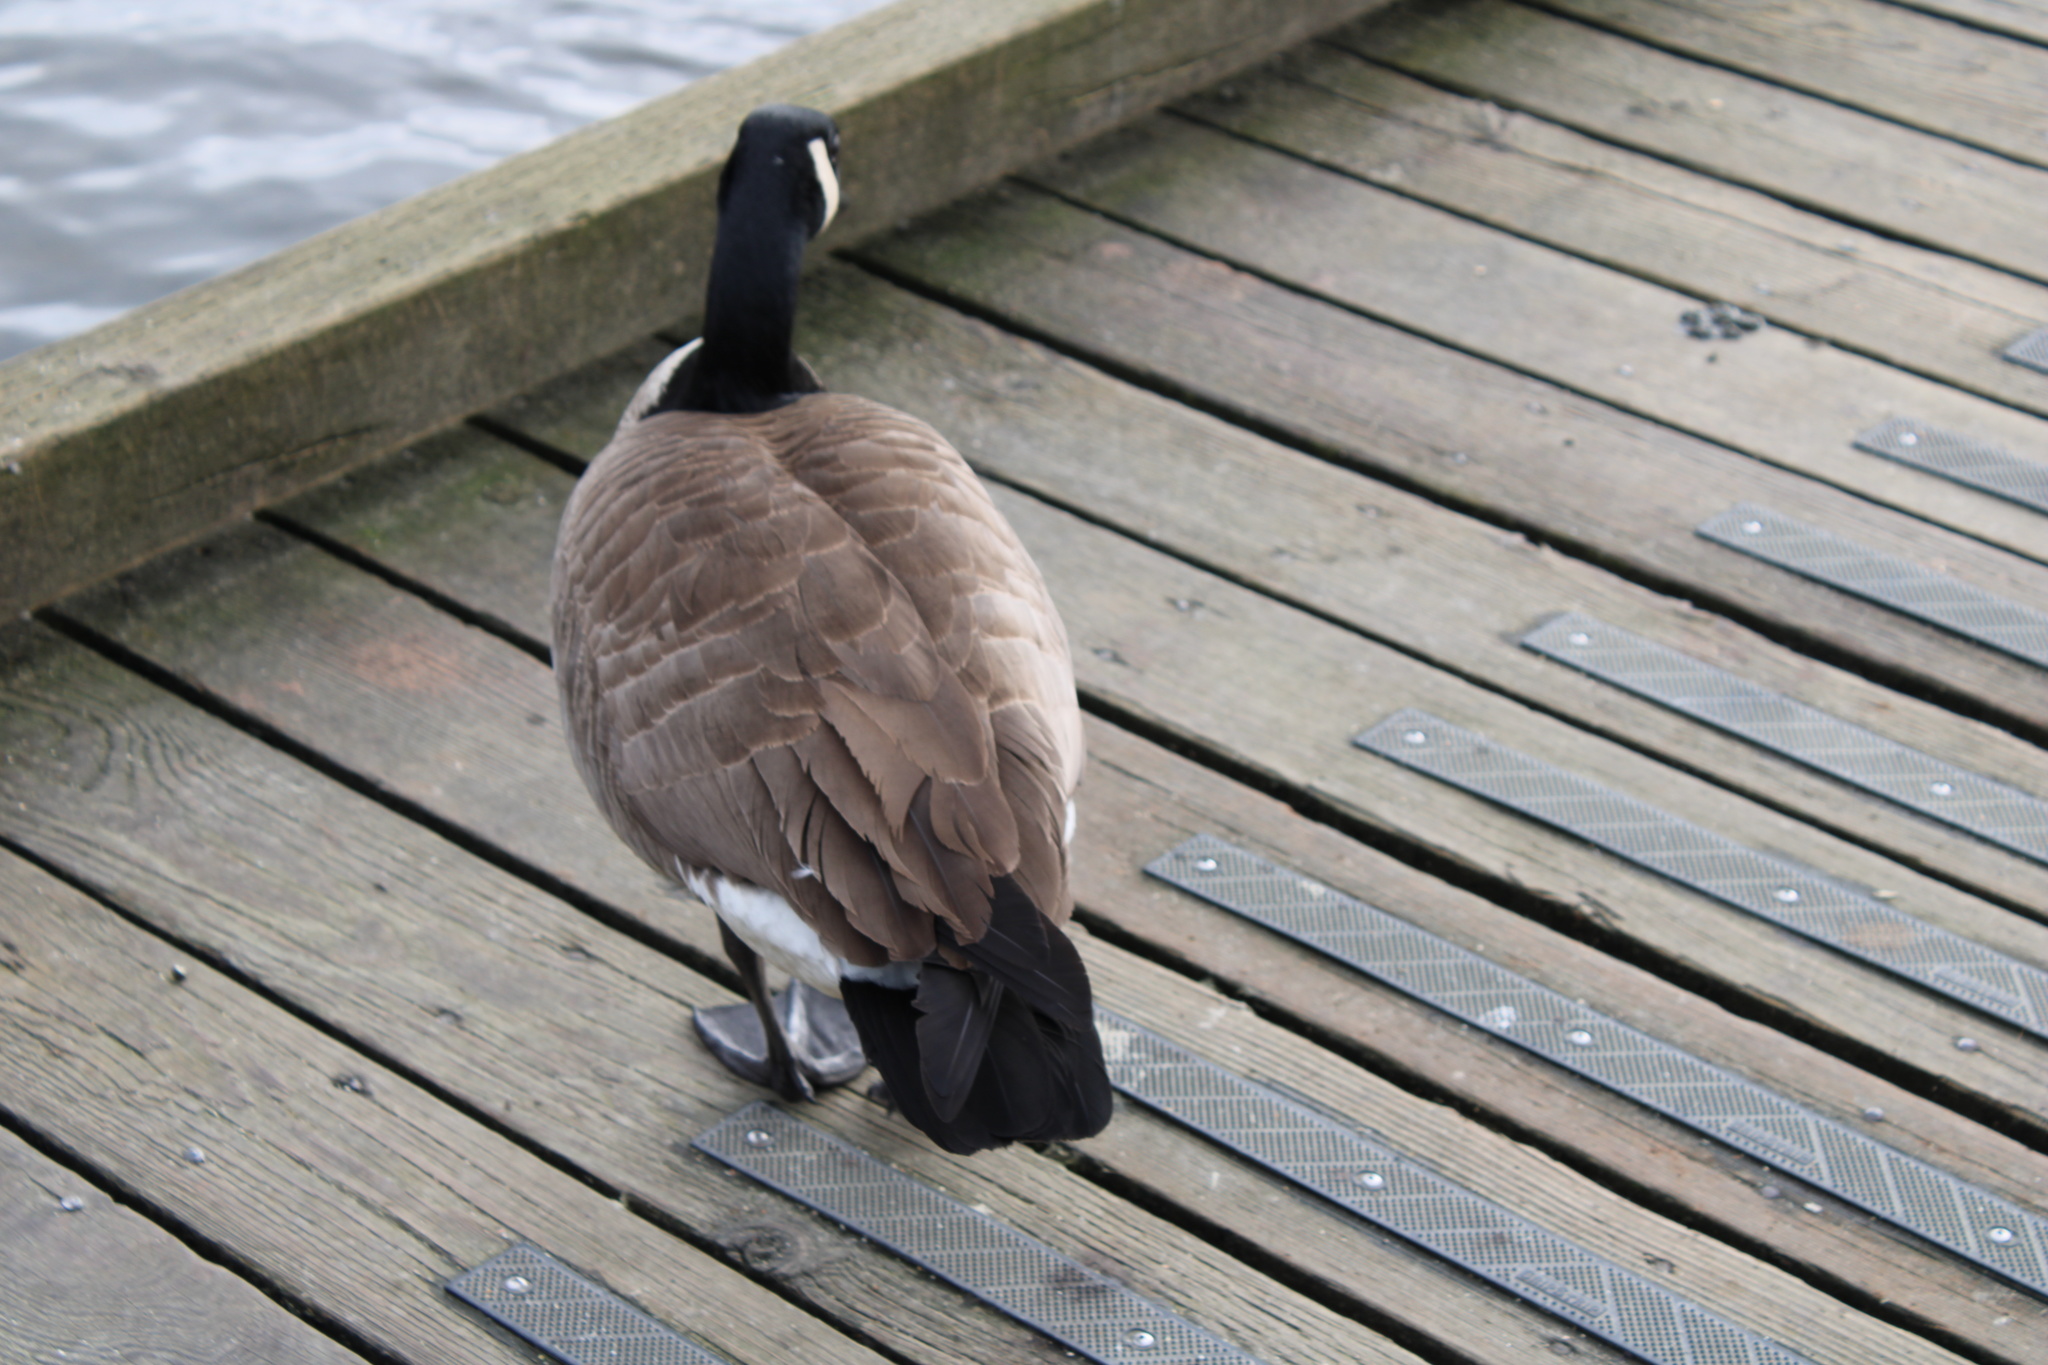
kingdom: Animalia
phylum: Chordata
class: Aves
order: Anseriformes
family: Anatidae
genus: Branta
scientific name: Branta canadensis
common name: Canada goose
